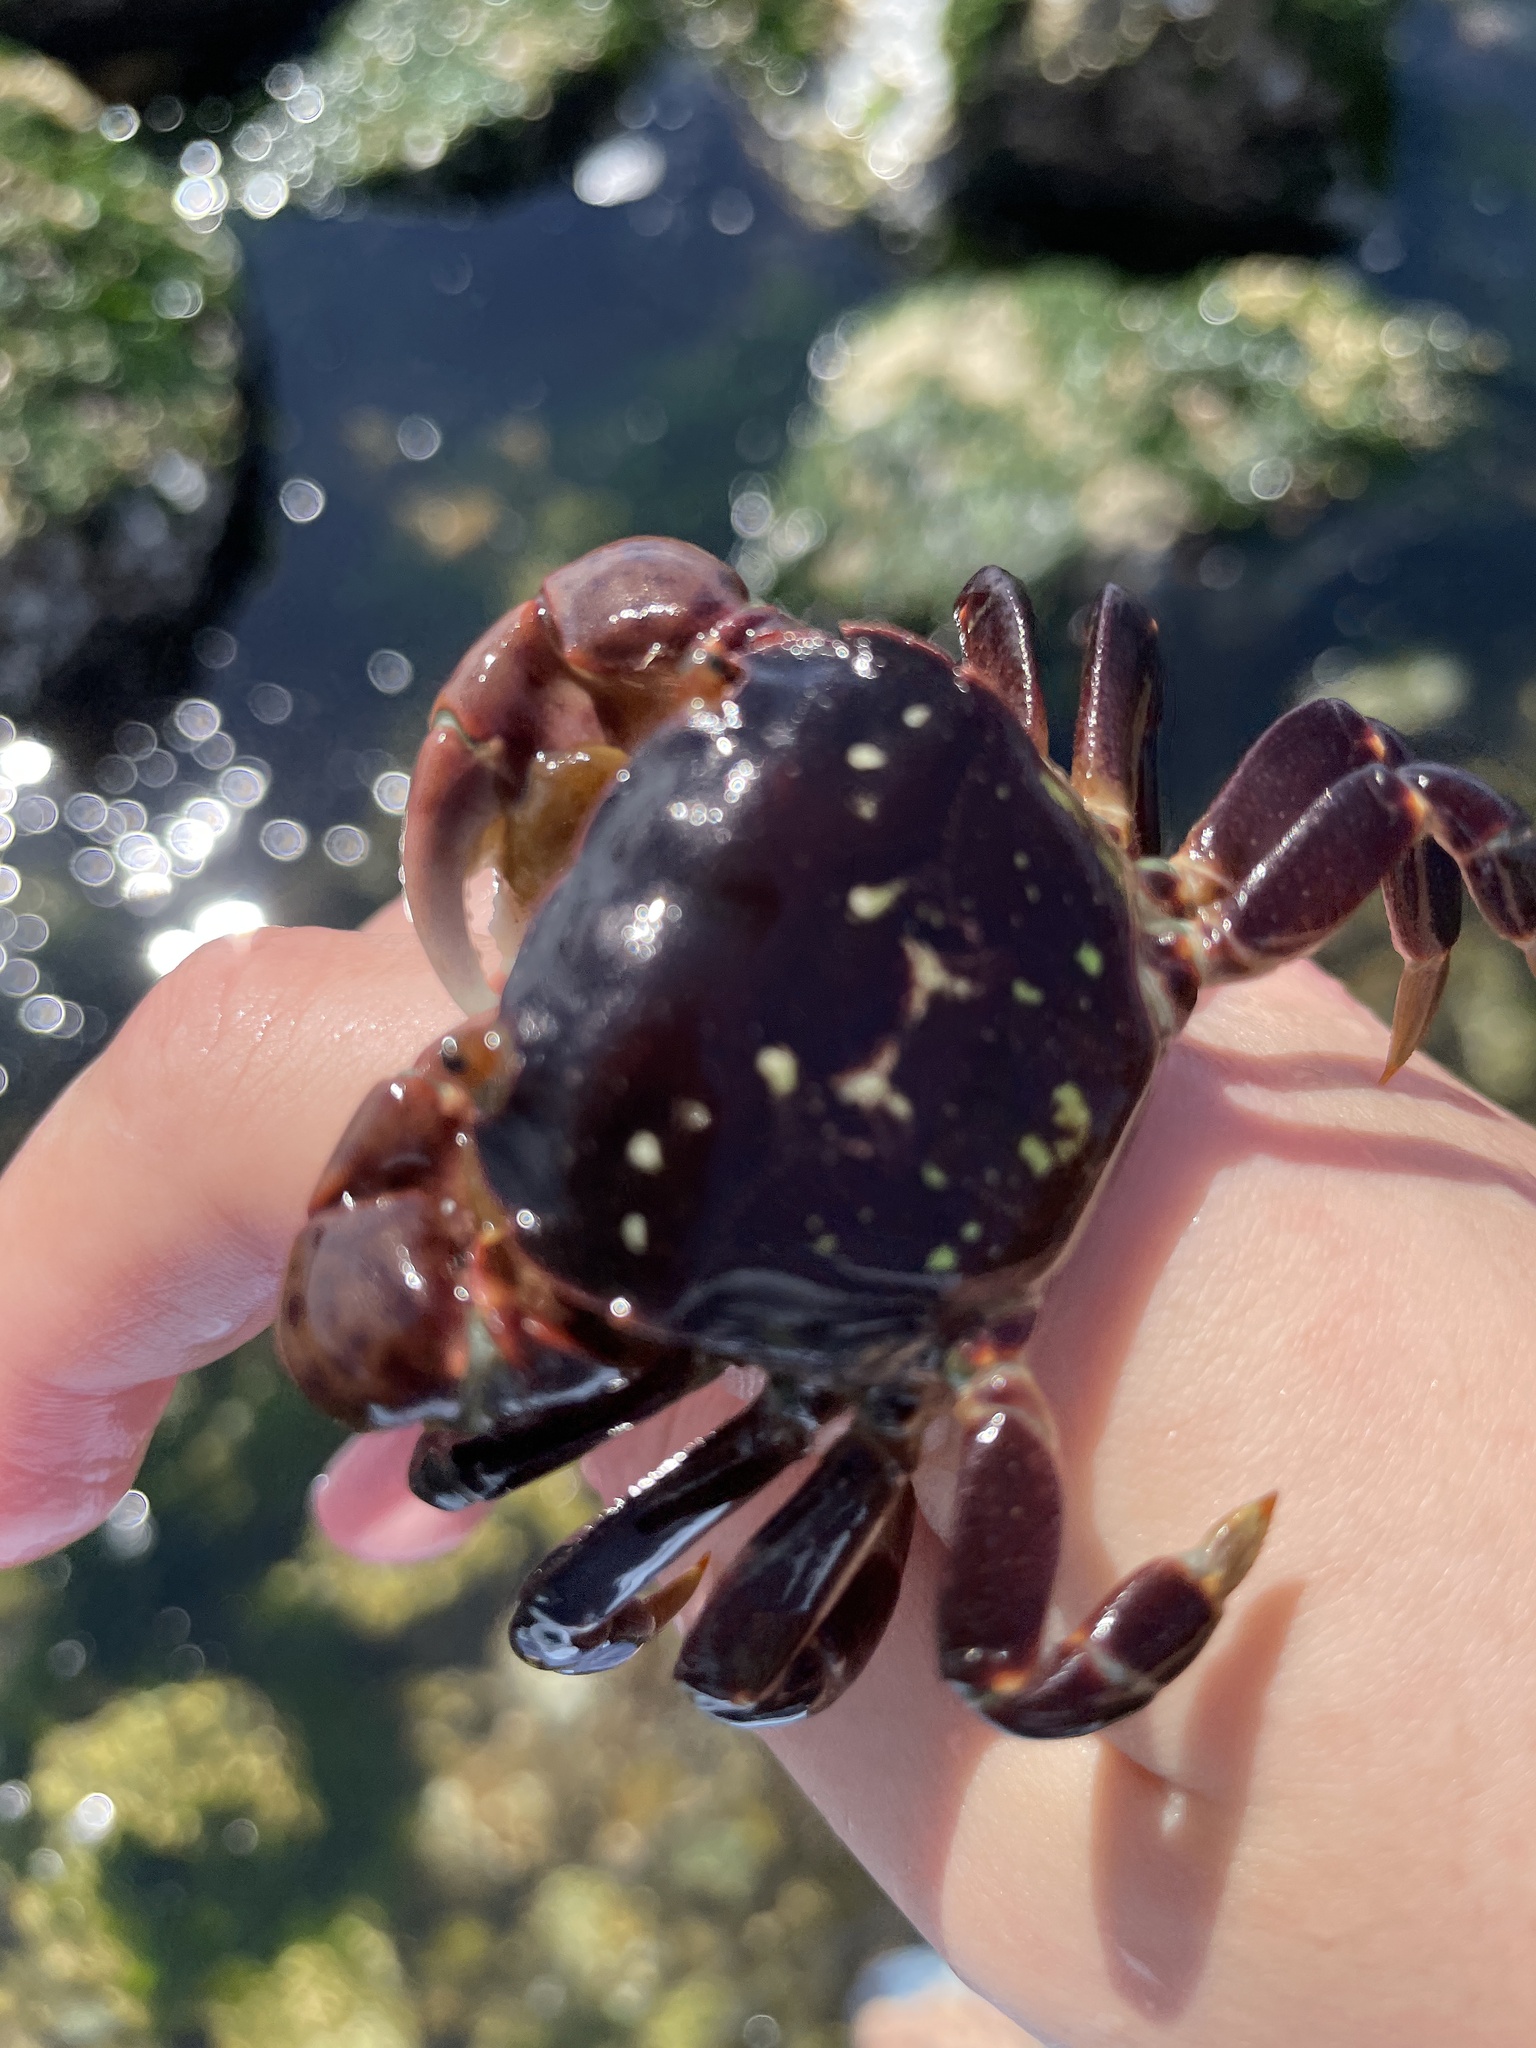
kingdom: Animalia
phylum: Arthropoda
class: Malacostraca
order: Decapoda
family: Varunidae
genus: Hemigrapsus
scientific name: Hemigrapsus nudus
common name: Purple shore crab
